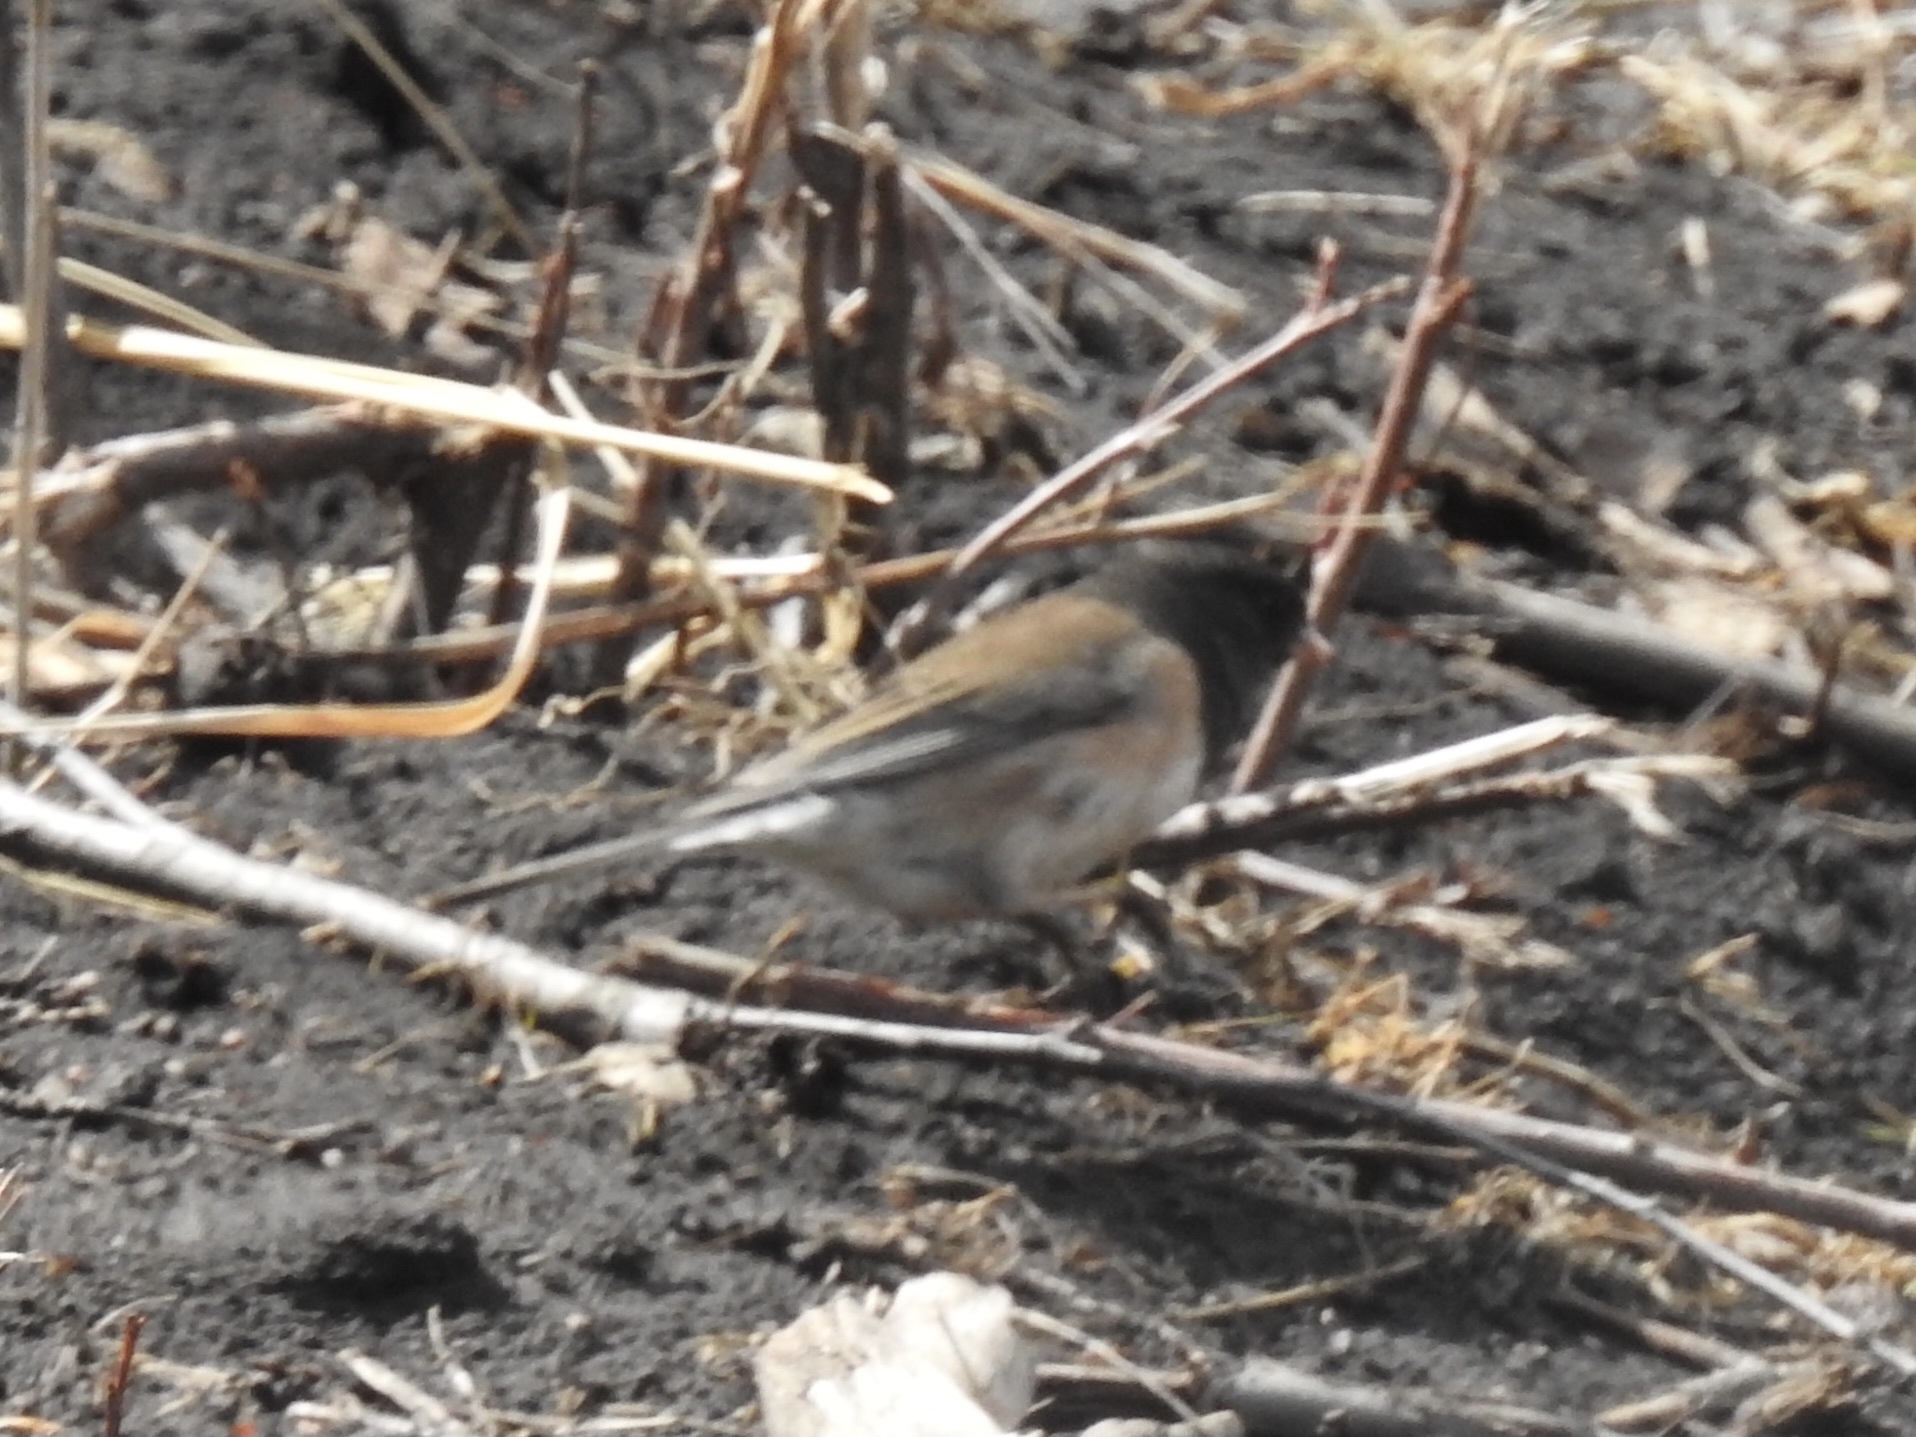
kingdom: Animalia
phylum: Chordata
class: Aves
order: Passeriformes
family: Passerellidae
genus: Junco
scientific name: Junco hyemalis
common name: Dark-eyed junco
